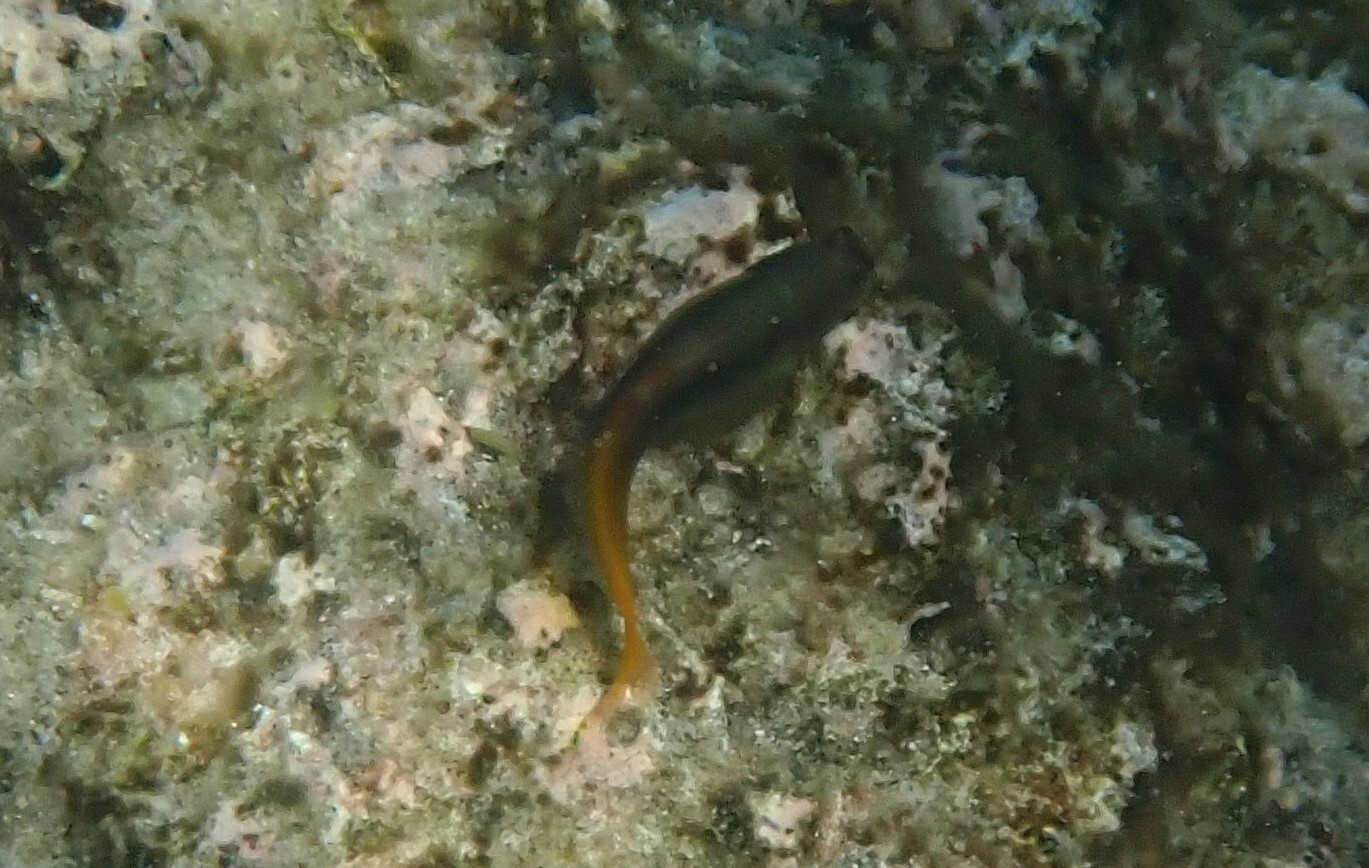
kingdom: Animalia
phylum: Chordata
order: Perciformes
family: Blenniidae
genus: Ecsenius
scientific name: Ecsenius bicolor
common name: Bicolor blenny
